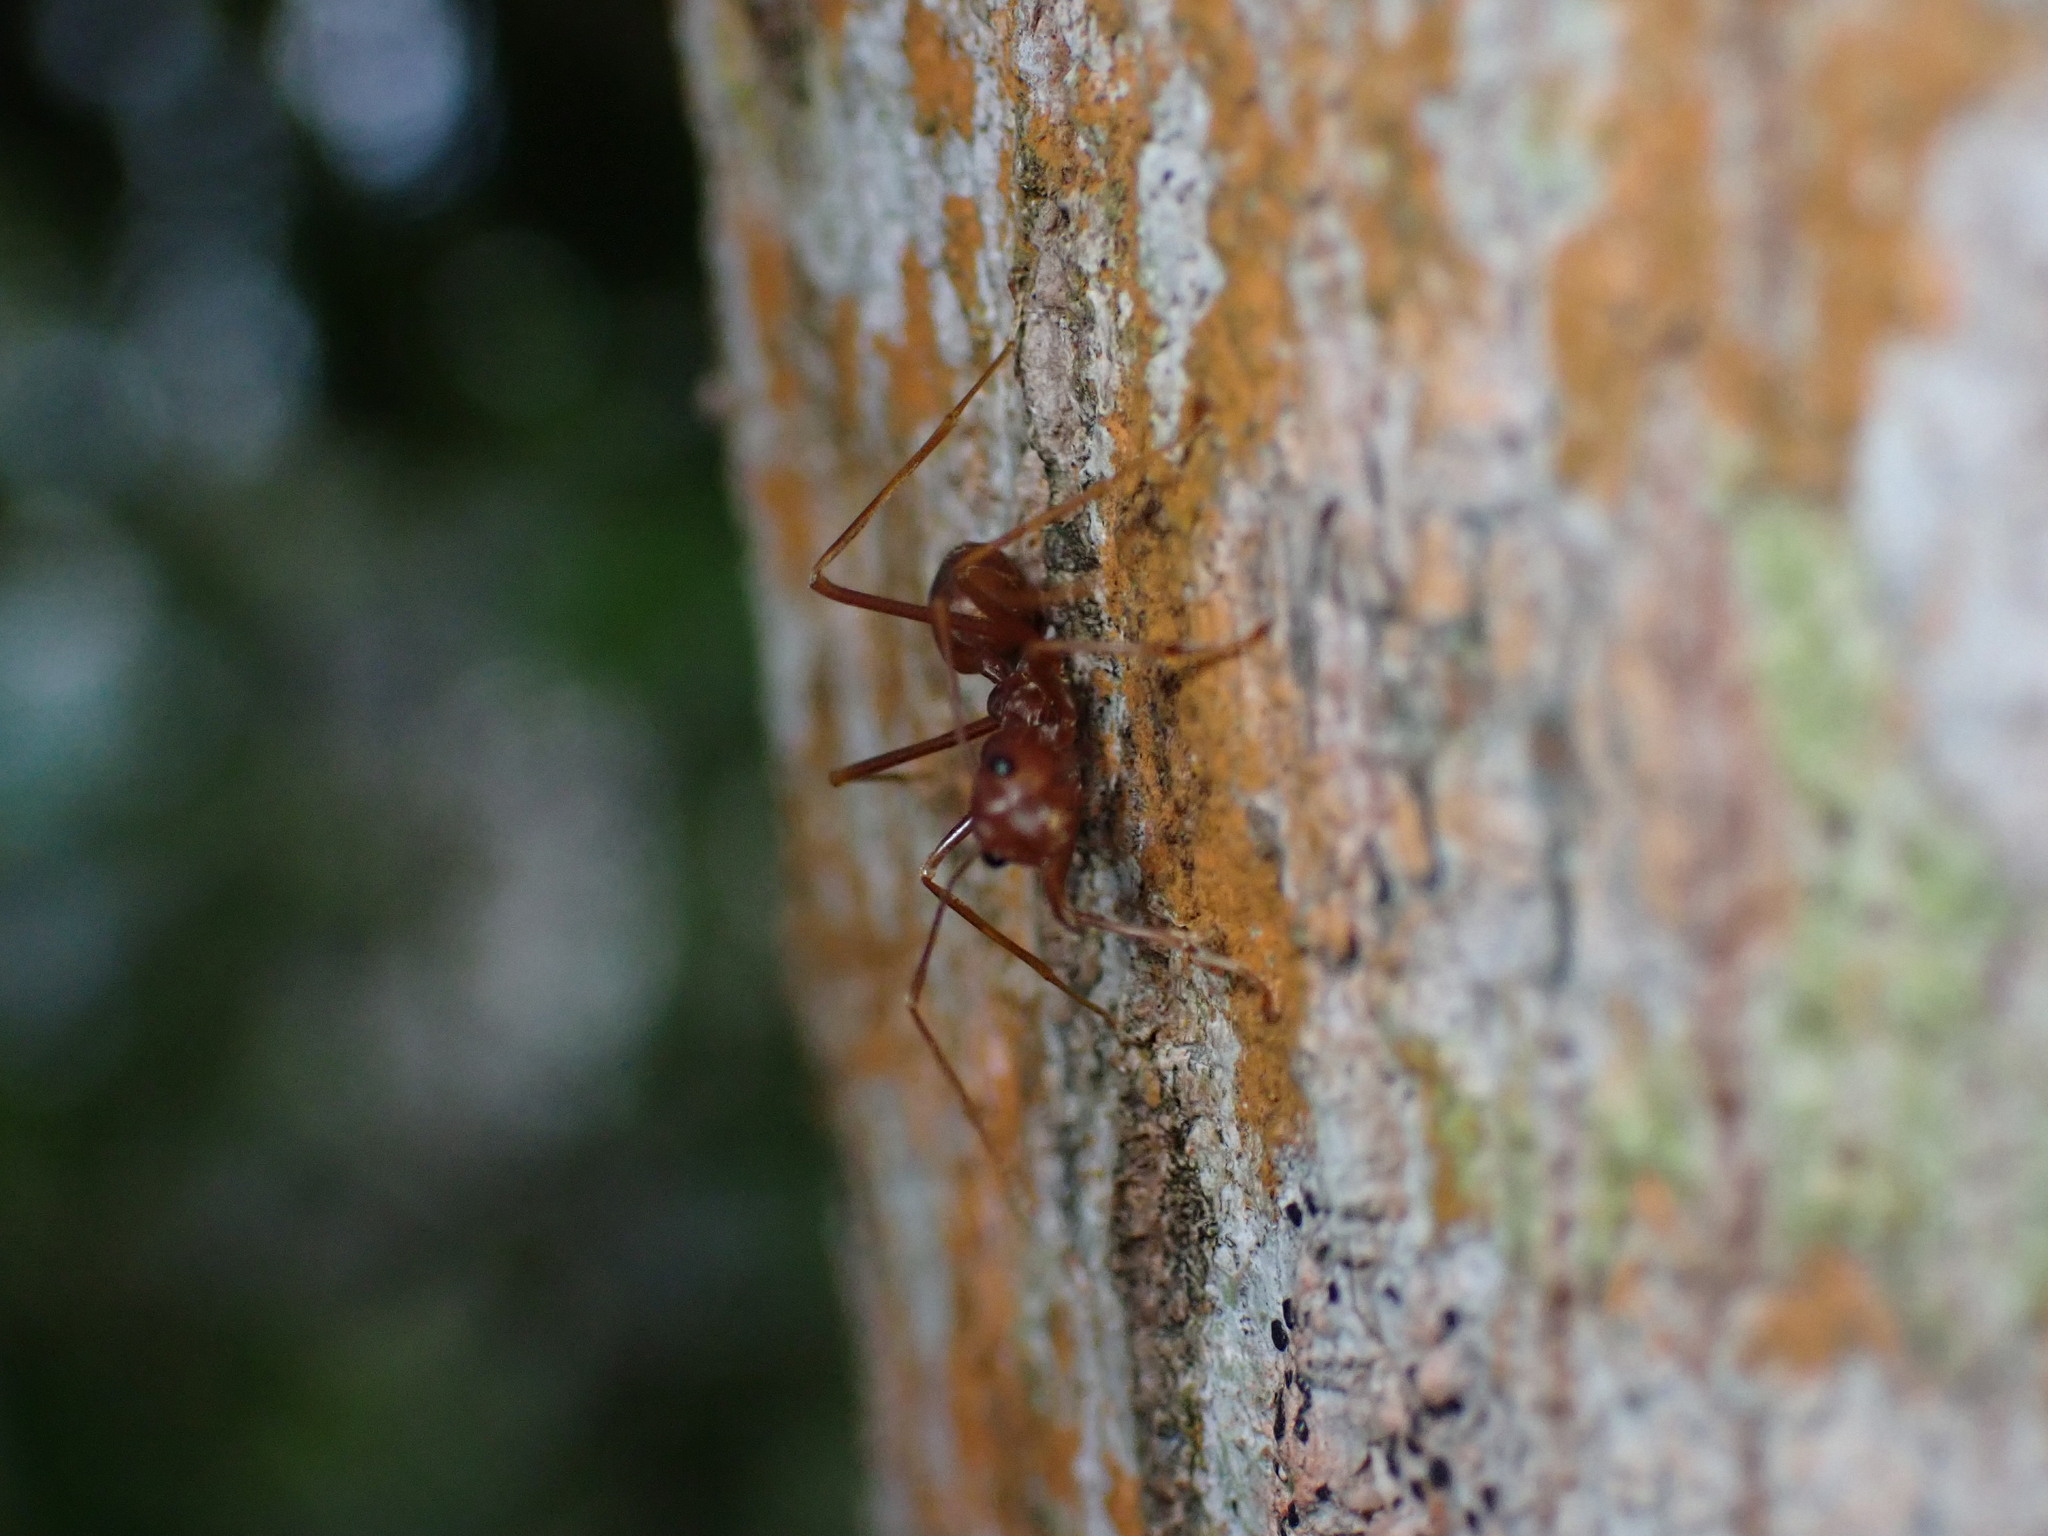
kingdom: Animalia
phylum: Arthropoda
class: Insecta
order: Hymenoptera
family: Formicidae
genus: Oecophylla
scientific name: Oecophylla smaragdina
